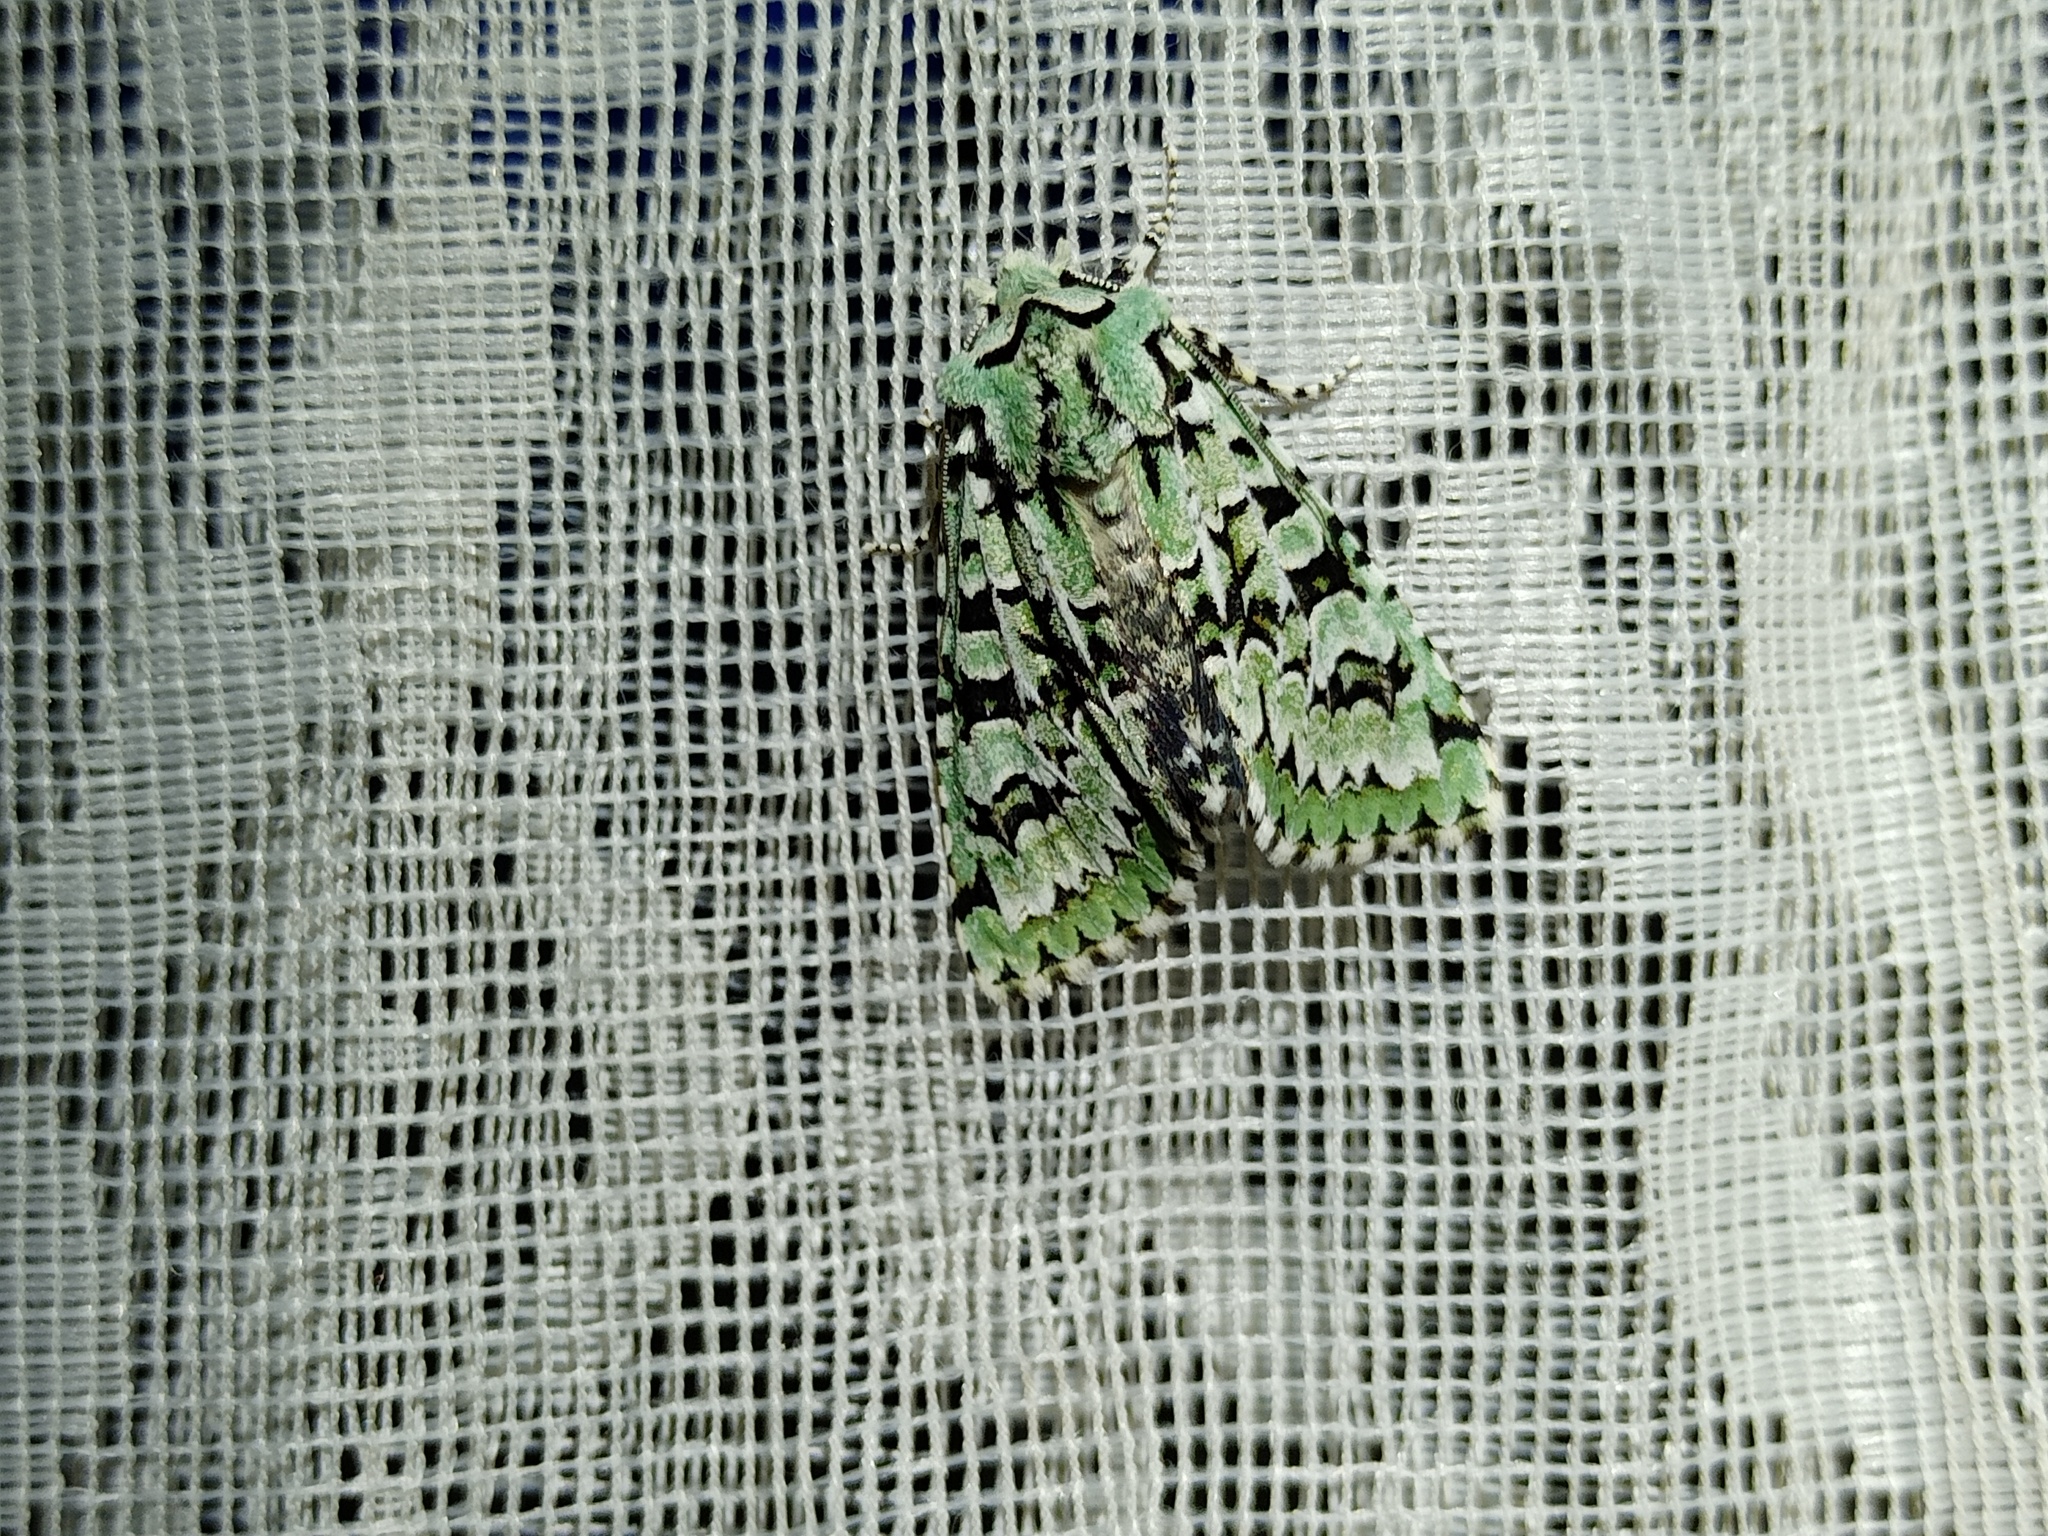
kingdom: Animalia
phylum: Arthropoda
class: Insecta
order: Lepidoptera
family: Noctuidae
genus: Griposia
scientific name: Griposia aprilina
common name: Merveille du jour
